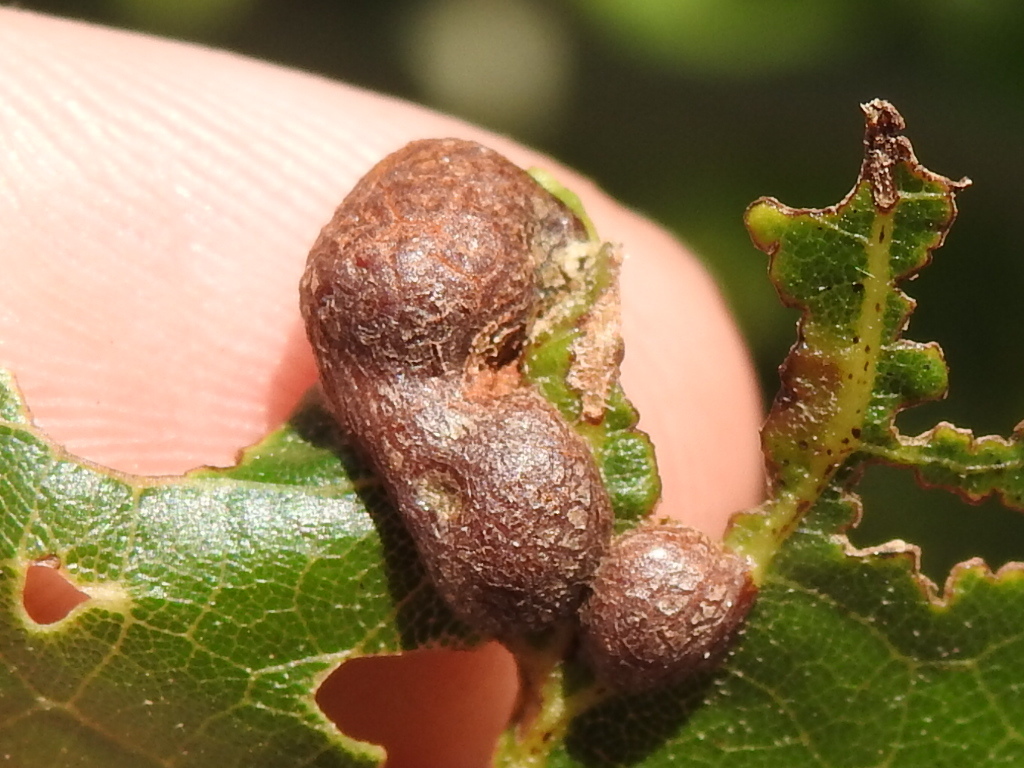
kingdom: Animalia
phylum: Arthropoda
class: Insecta
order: Diptera
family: Cecidomyiidae
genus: Polystepha
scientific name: Polystepha pilulae
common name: Oak leaf gall midge
